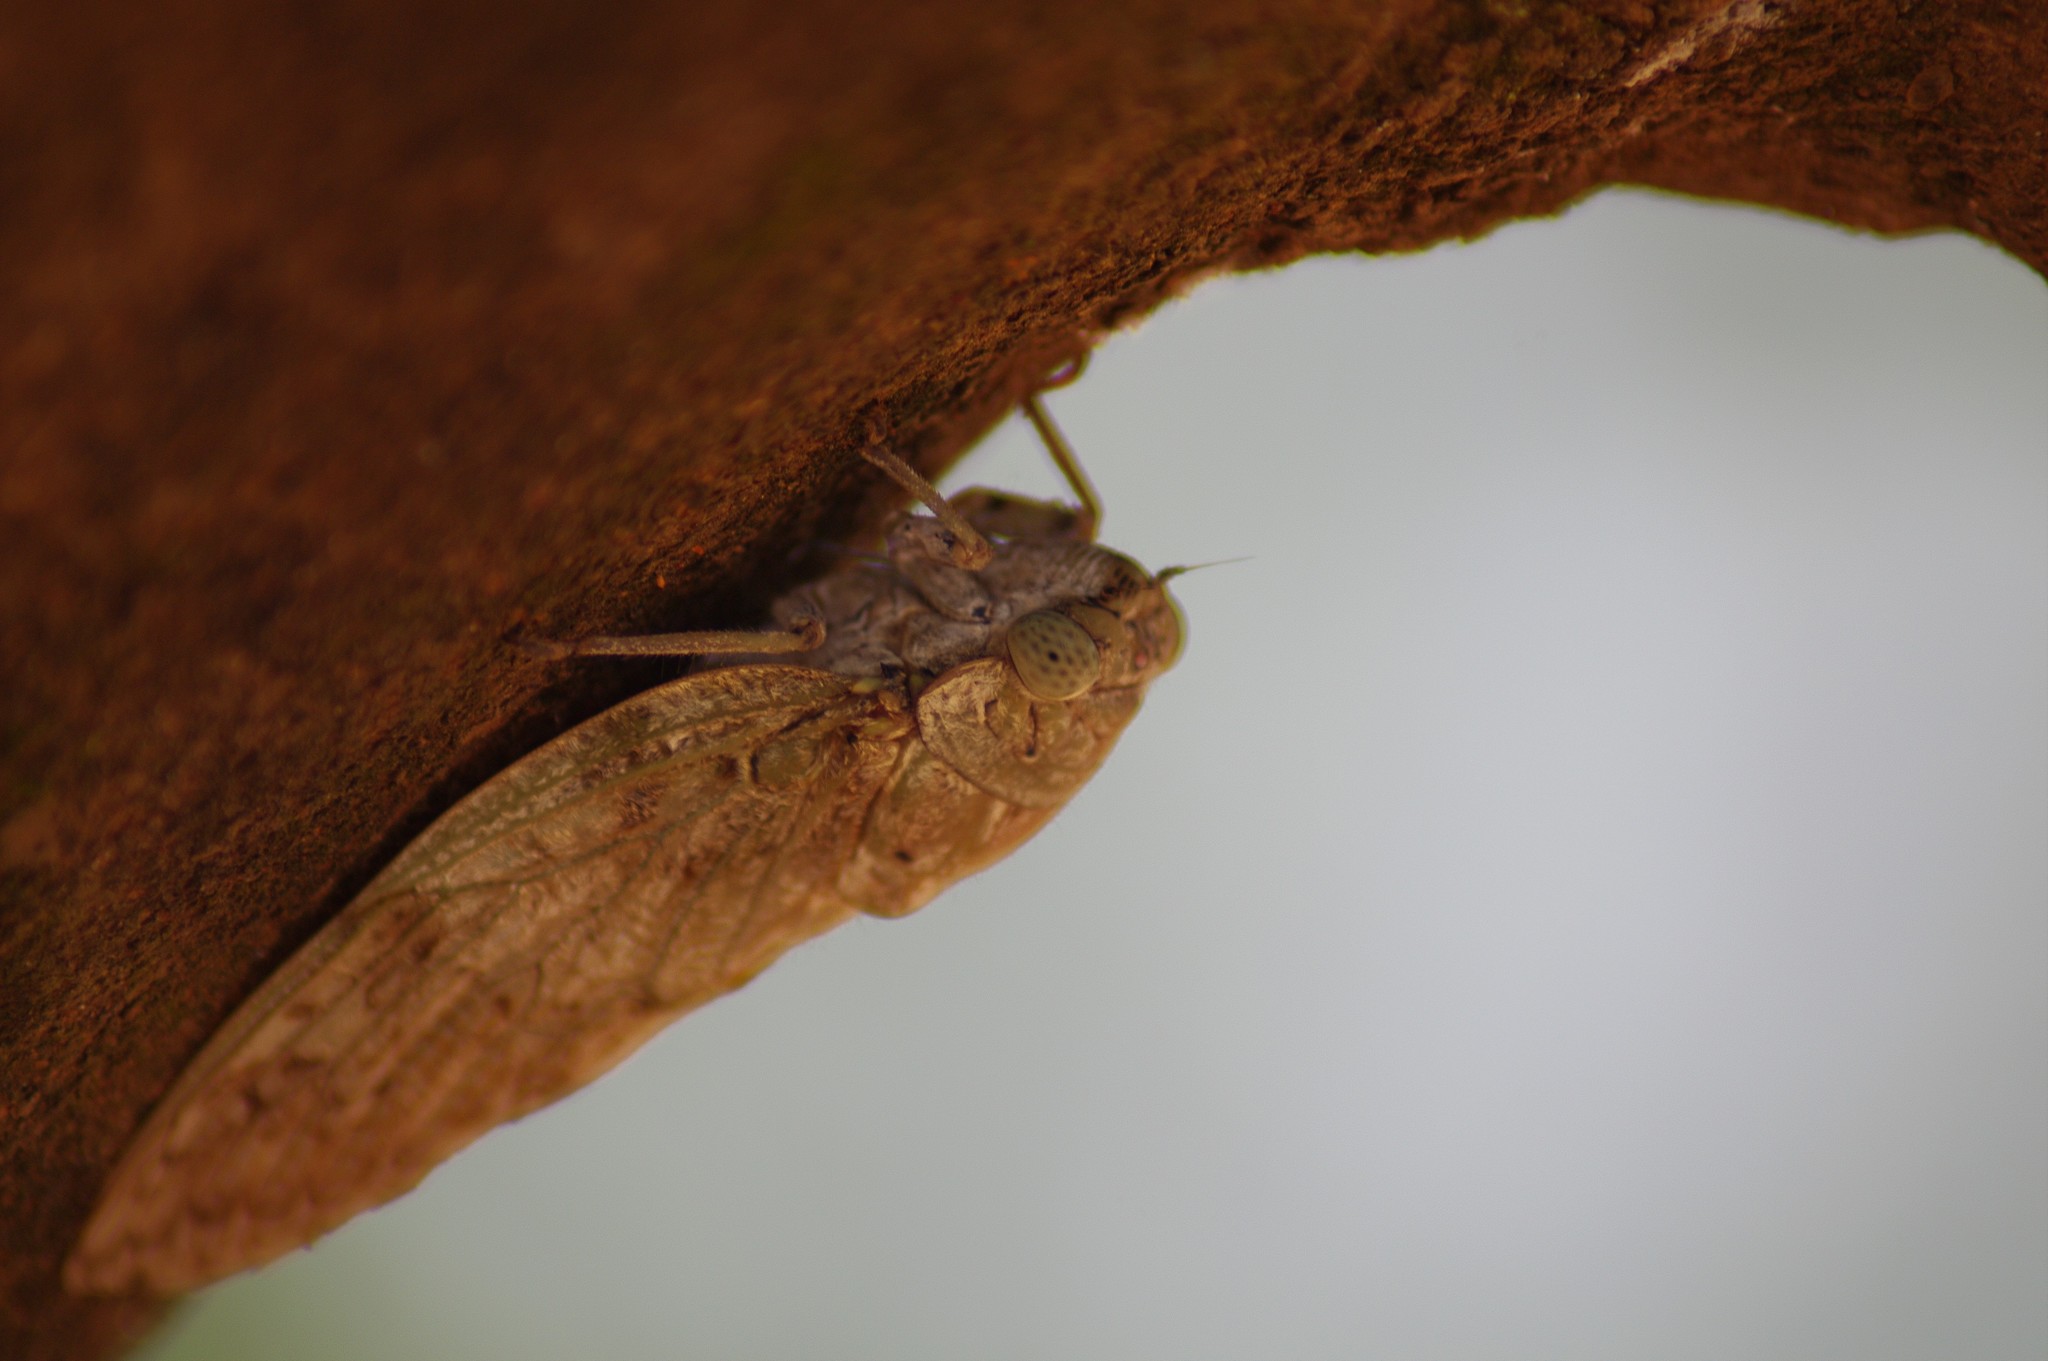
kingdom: Animalia
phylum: Arthropoda
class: Insecta
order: Hemiptera
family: Cicadidae
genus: Yanga
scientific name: Yanga andriana
